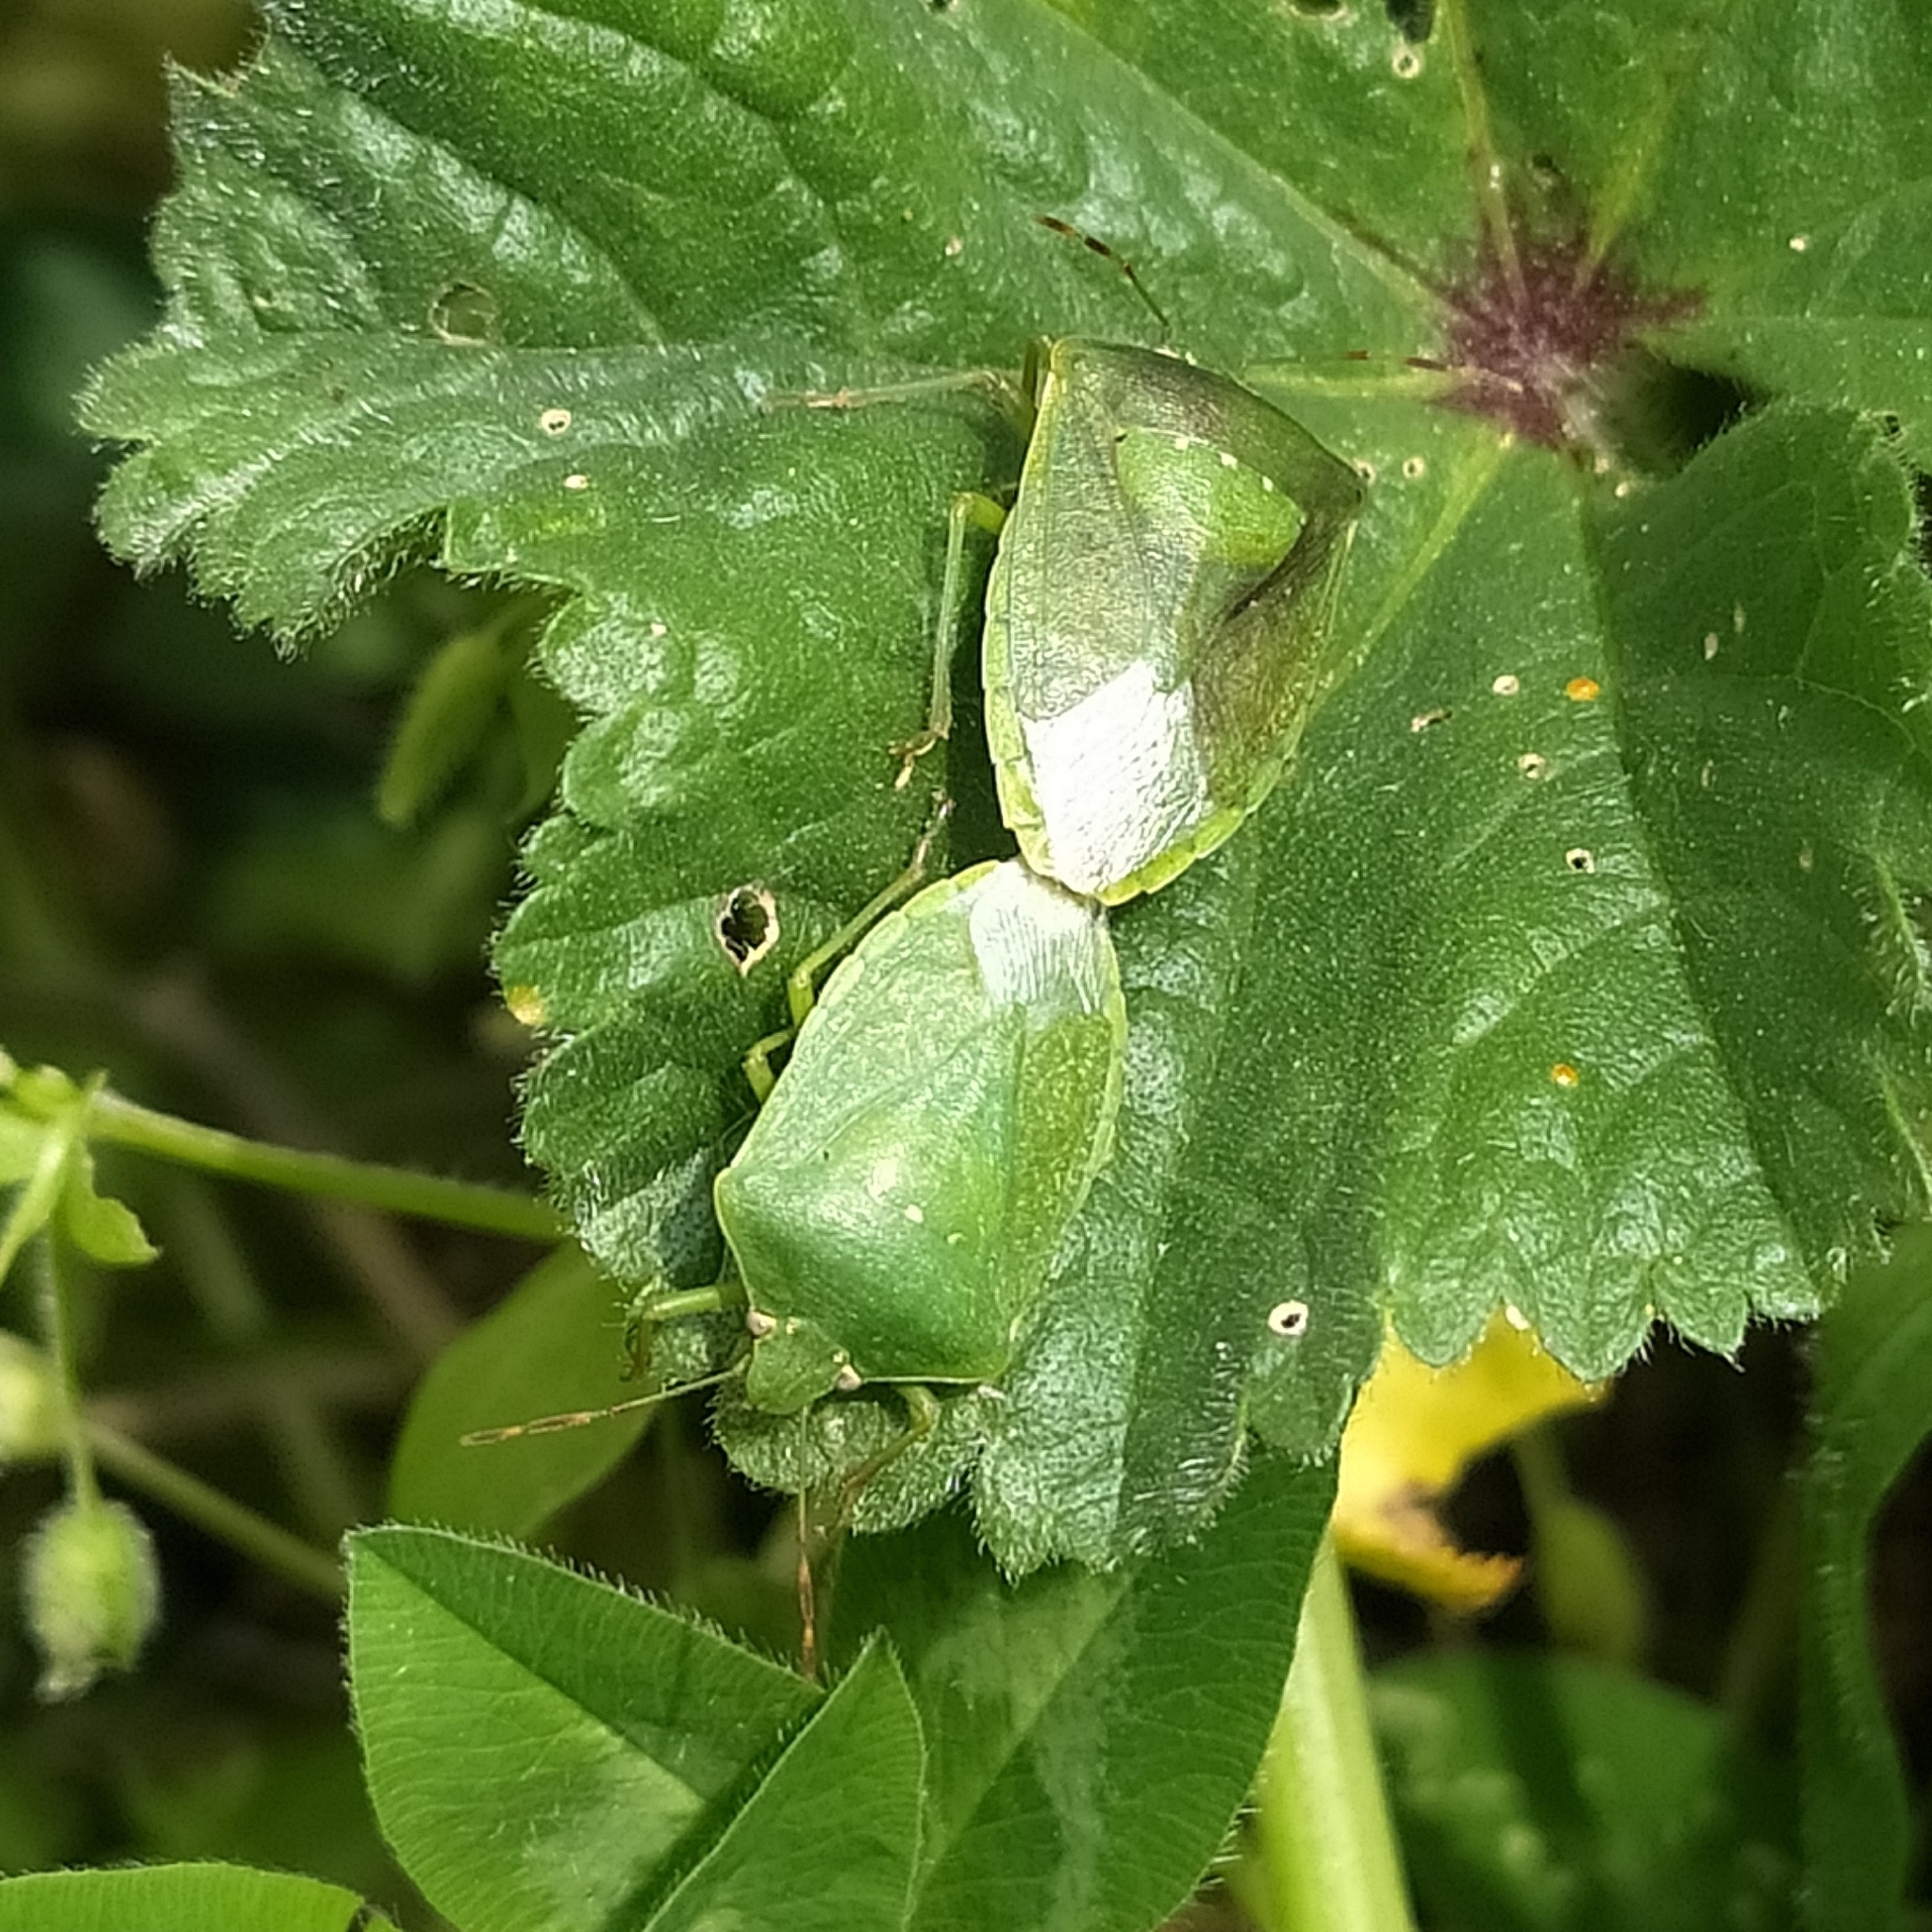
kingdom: Animalia
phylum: Arthropoda
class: Insecta
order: Hemiptera
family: Pentatomidae
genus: Nezara
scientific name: Nezara viridula
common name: Southern green stink bug
